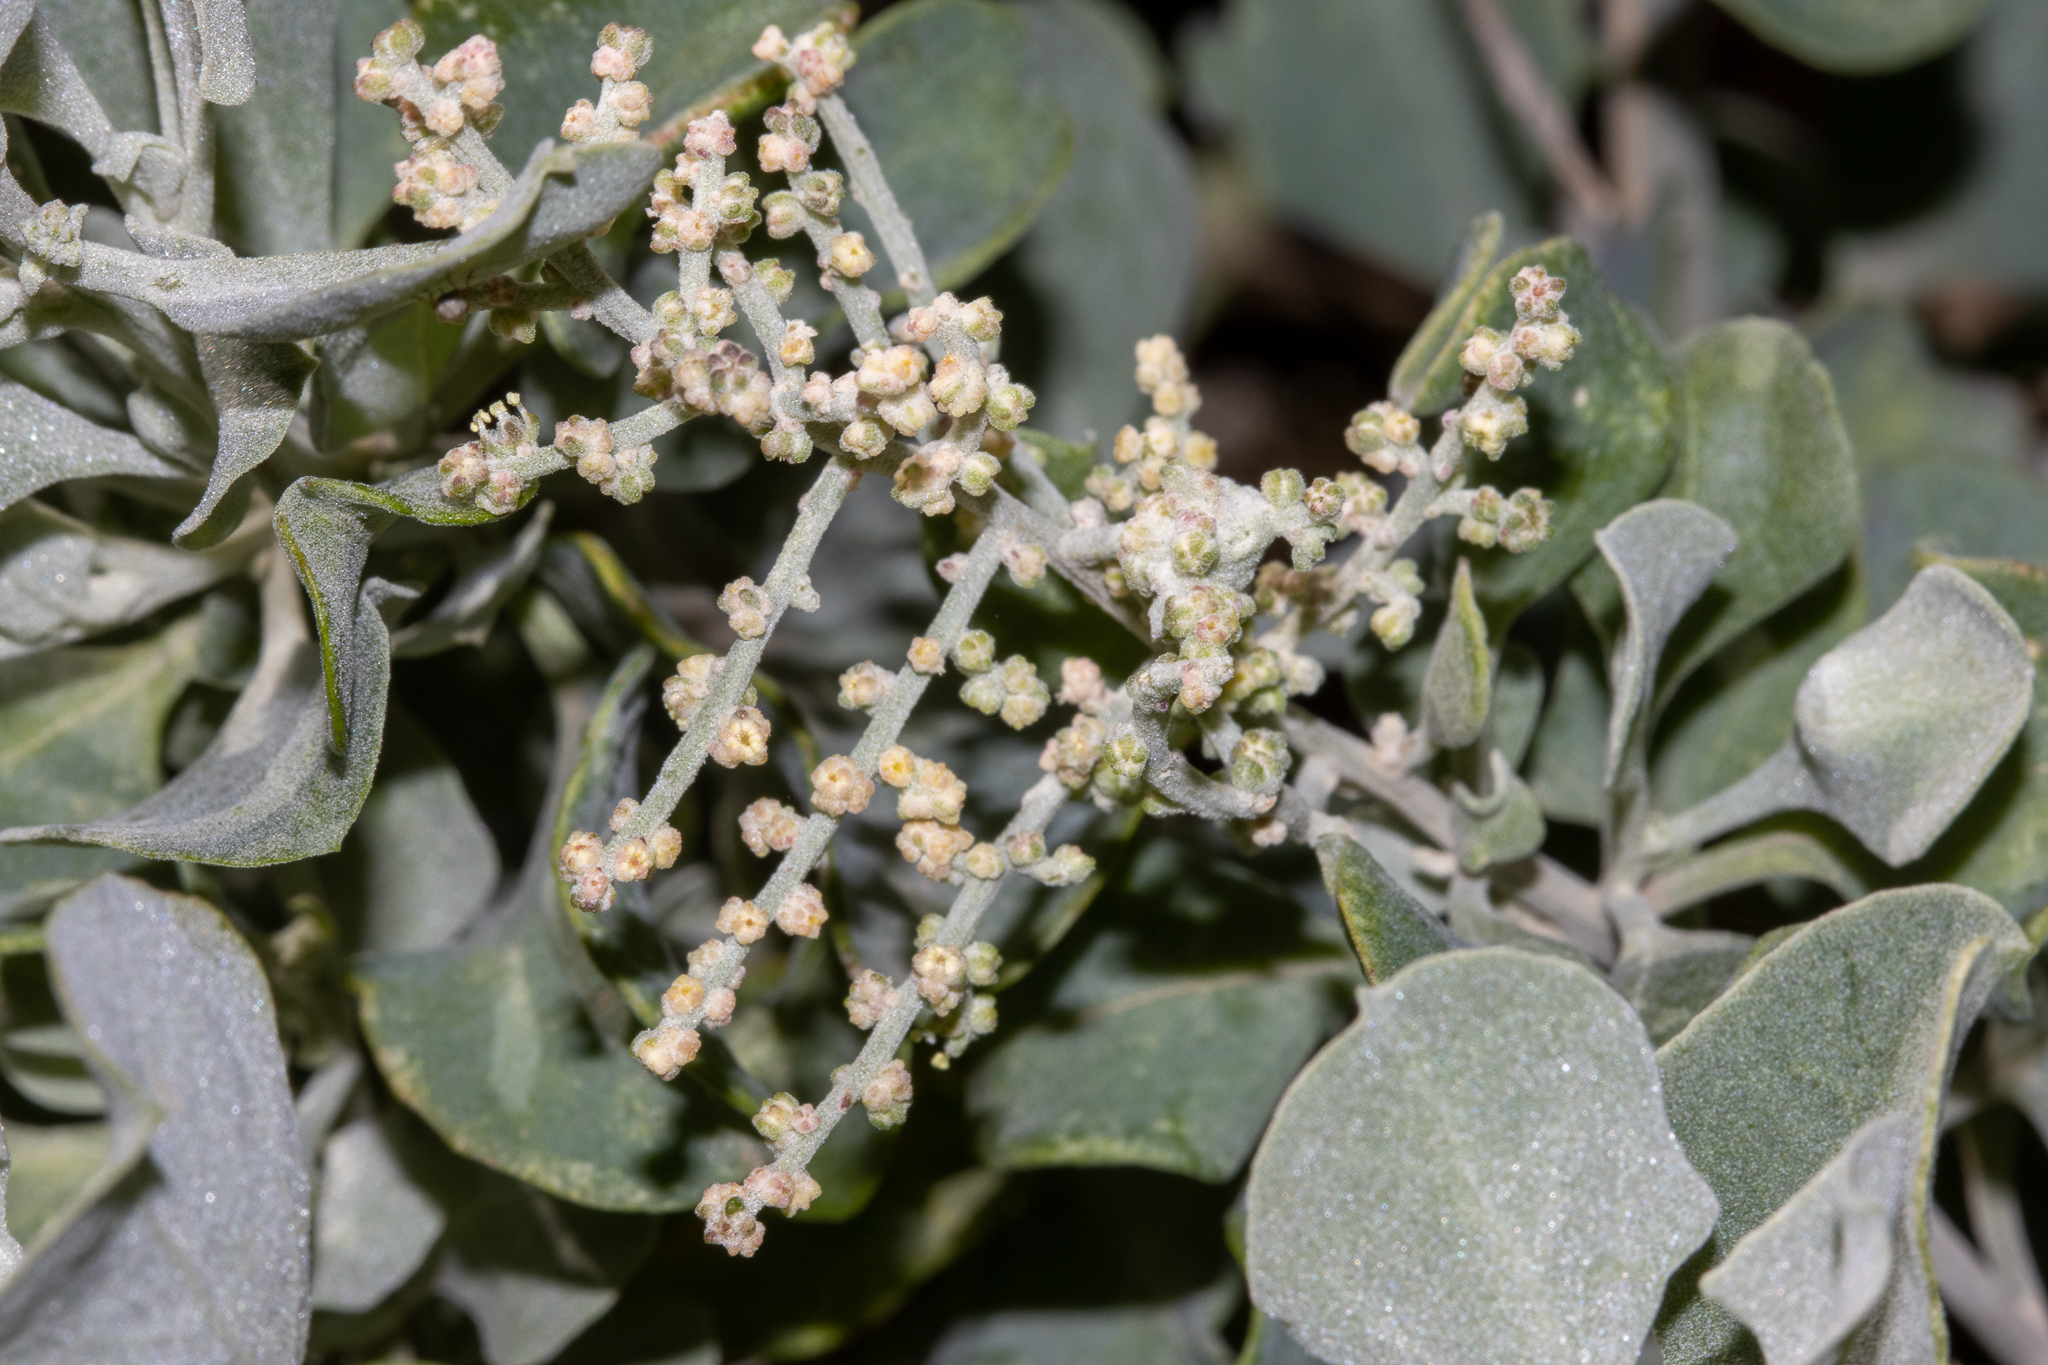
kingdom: Plantae
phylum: Tracheophyta
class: Magnoliopsida
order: Caryophyllales
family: Amaranthaceae
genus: Chenopodium
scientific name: Chenopodium parabolicum
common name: Old-man-saltbush
